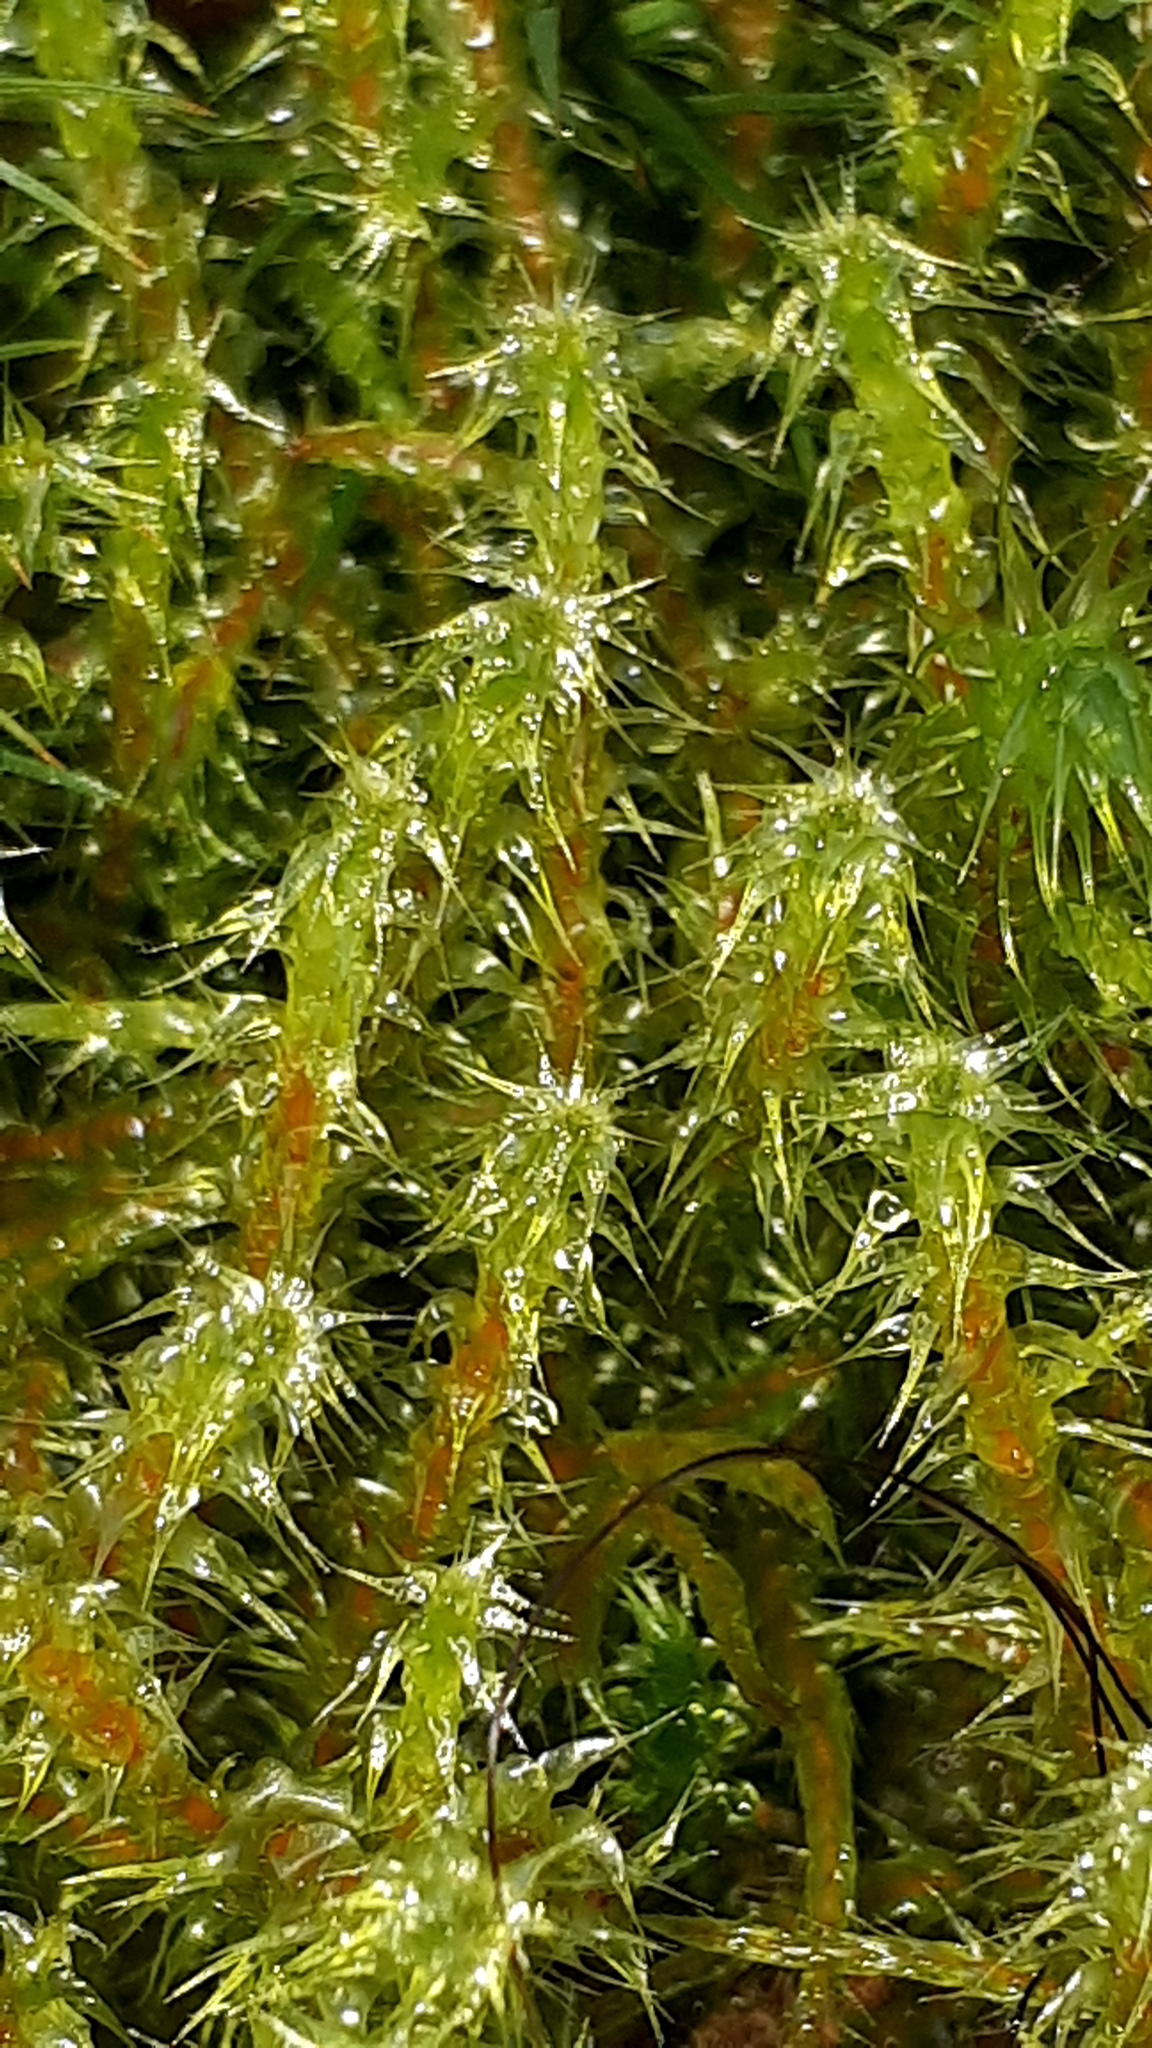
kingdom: Plantae
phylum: Bryophyta
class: Bryopsida
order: Hypnales
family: Hylocomiaceae
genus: Rhytidiadelphus
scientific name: Rhytidiadelphus squarrosus
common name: Springy turf-moss
